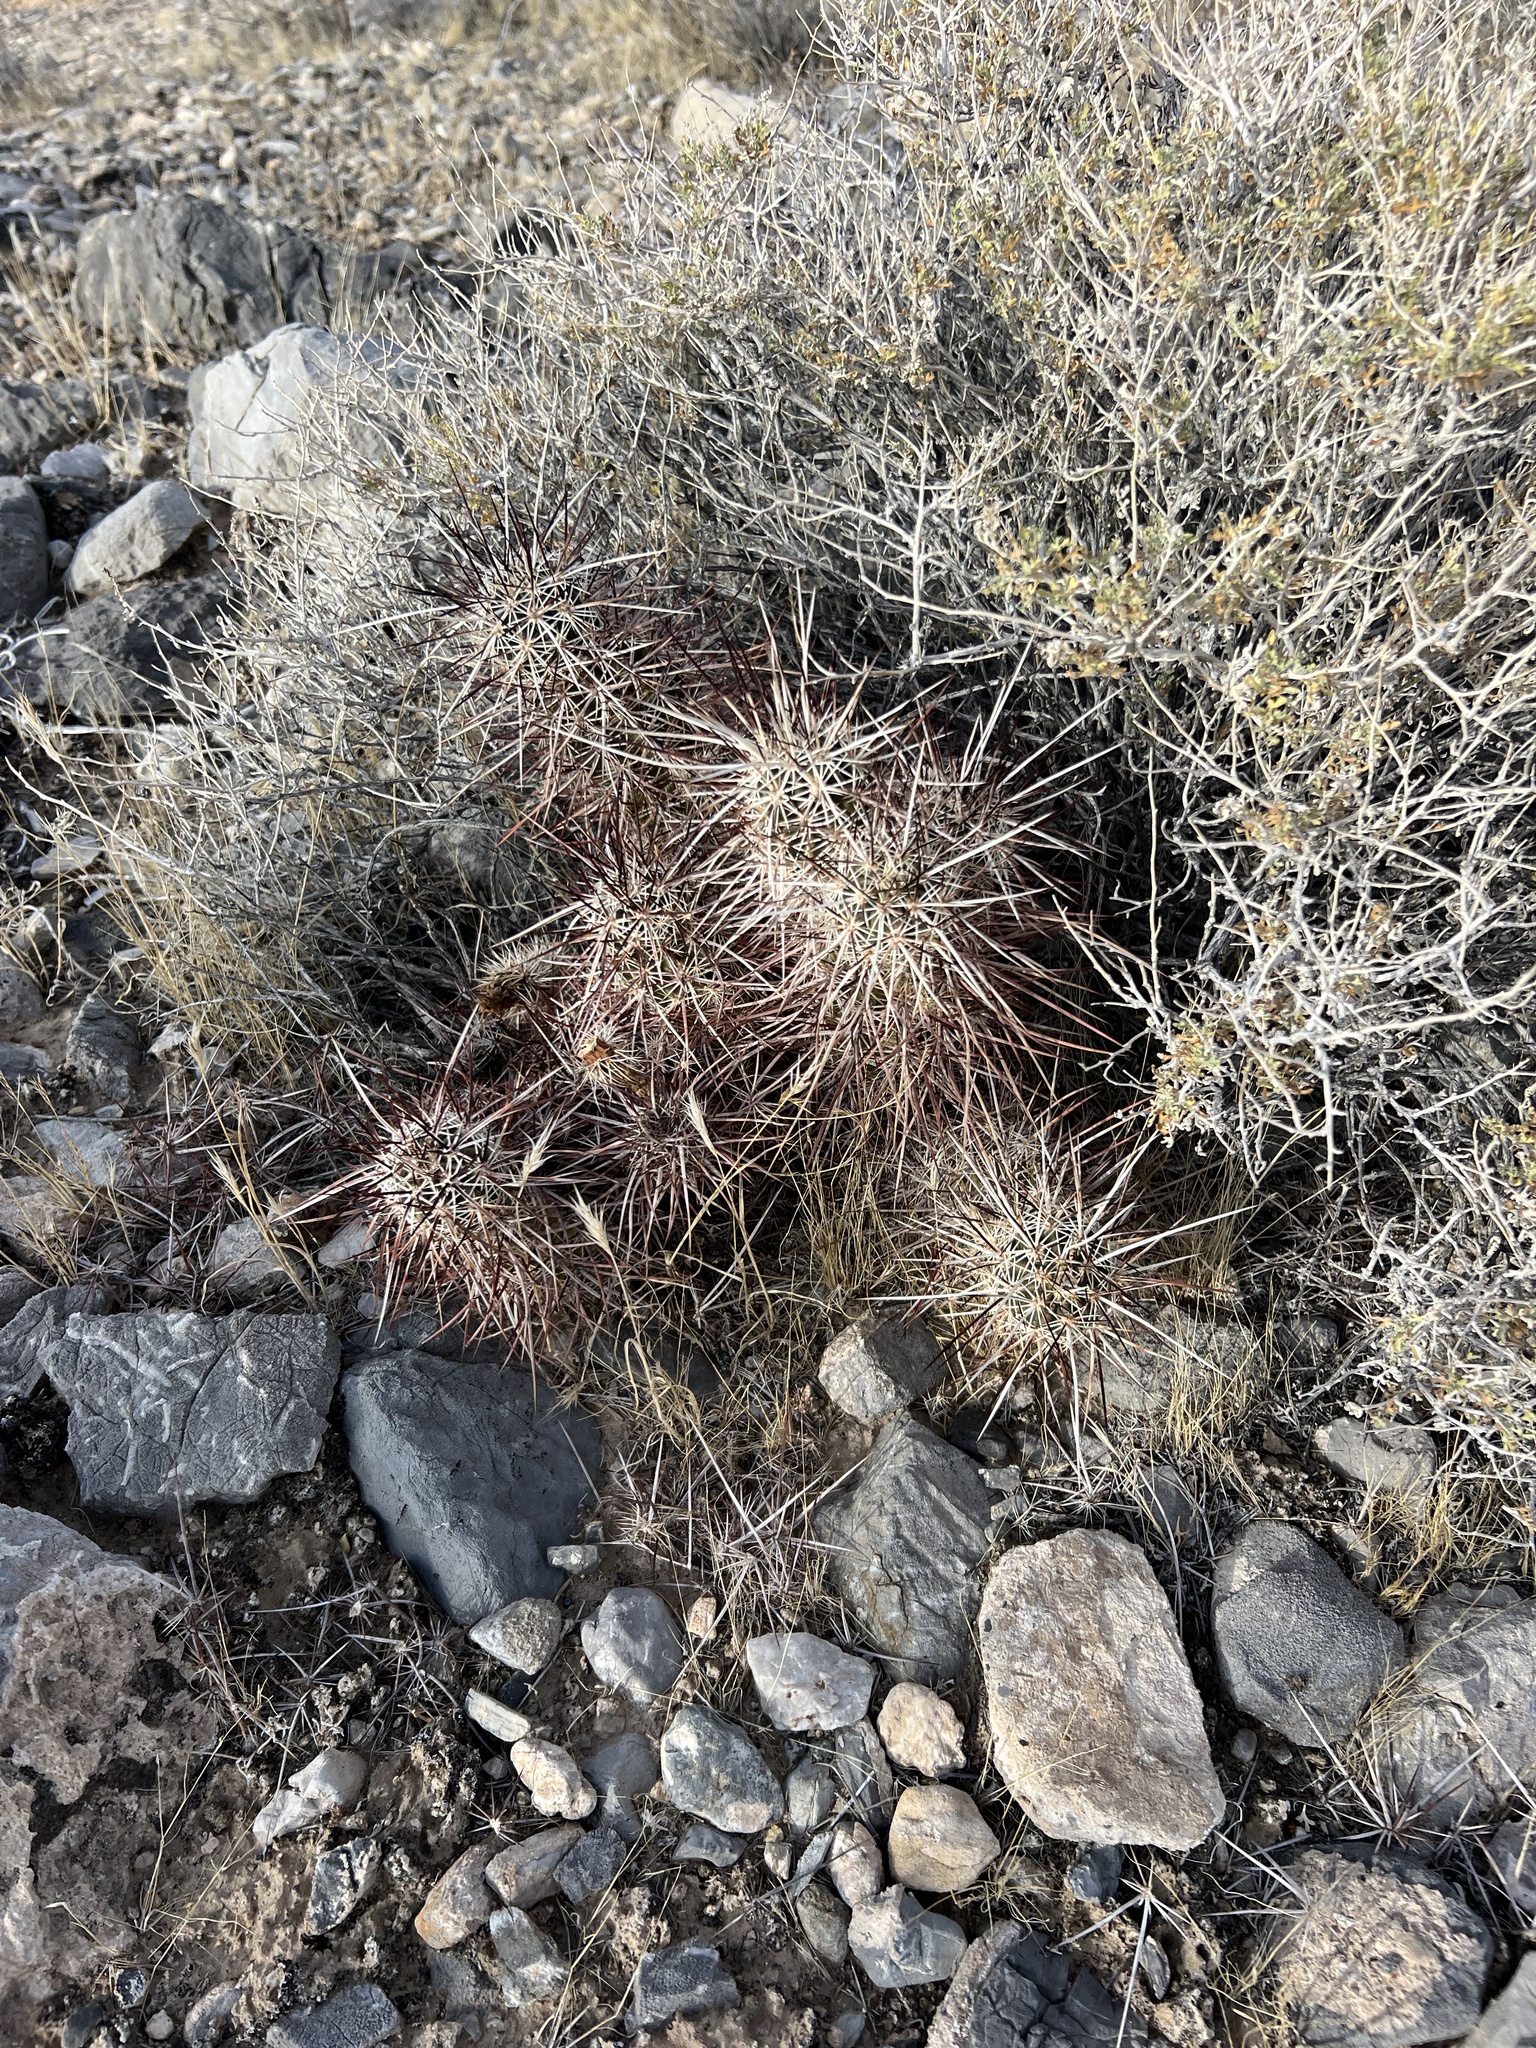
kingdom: Plantae
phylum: Tracheophyta
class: Magnoliopsida
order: Caryophyllales
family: Cactaceae
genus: Echinocereus
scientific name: Echinocereus engelmannii
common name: Engelmann's hedgehog cactus
